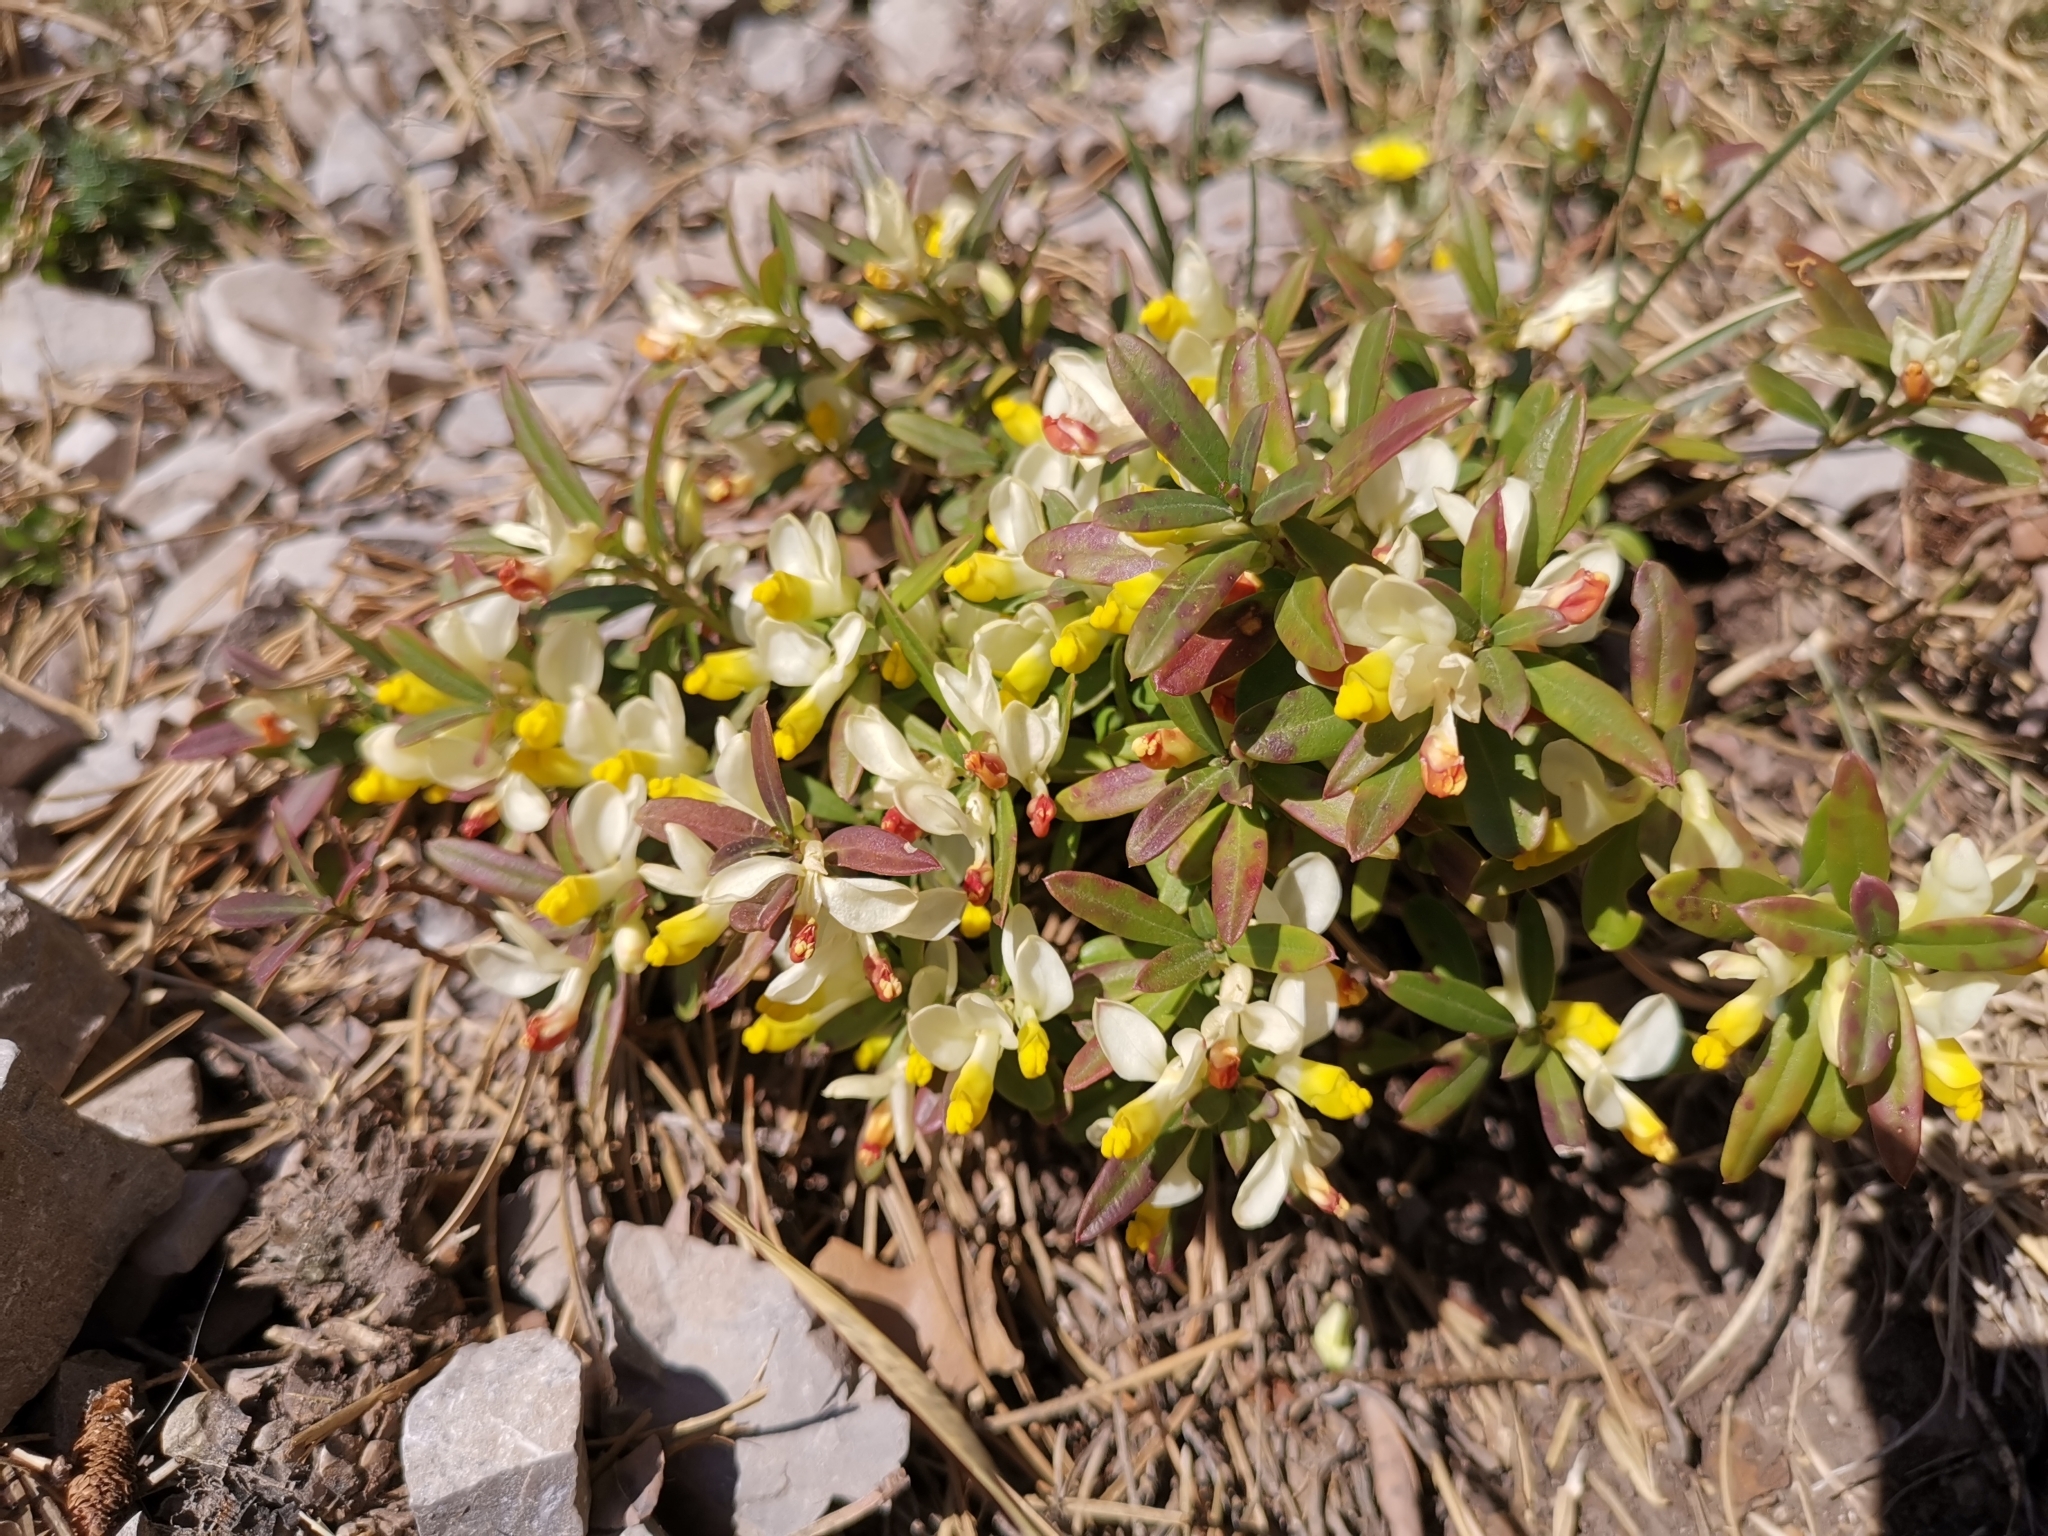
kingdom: Plantae
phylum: Tracheophyta
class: Magnoliopsida
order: Fabales
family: Polygalaceae
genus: Polygaloides
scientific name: Polygaloides chamaebuxus
